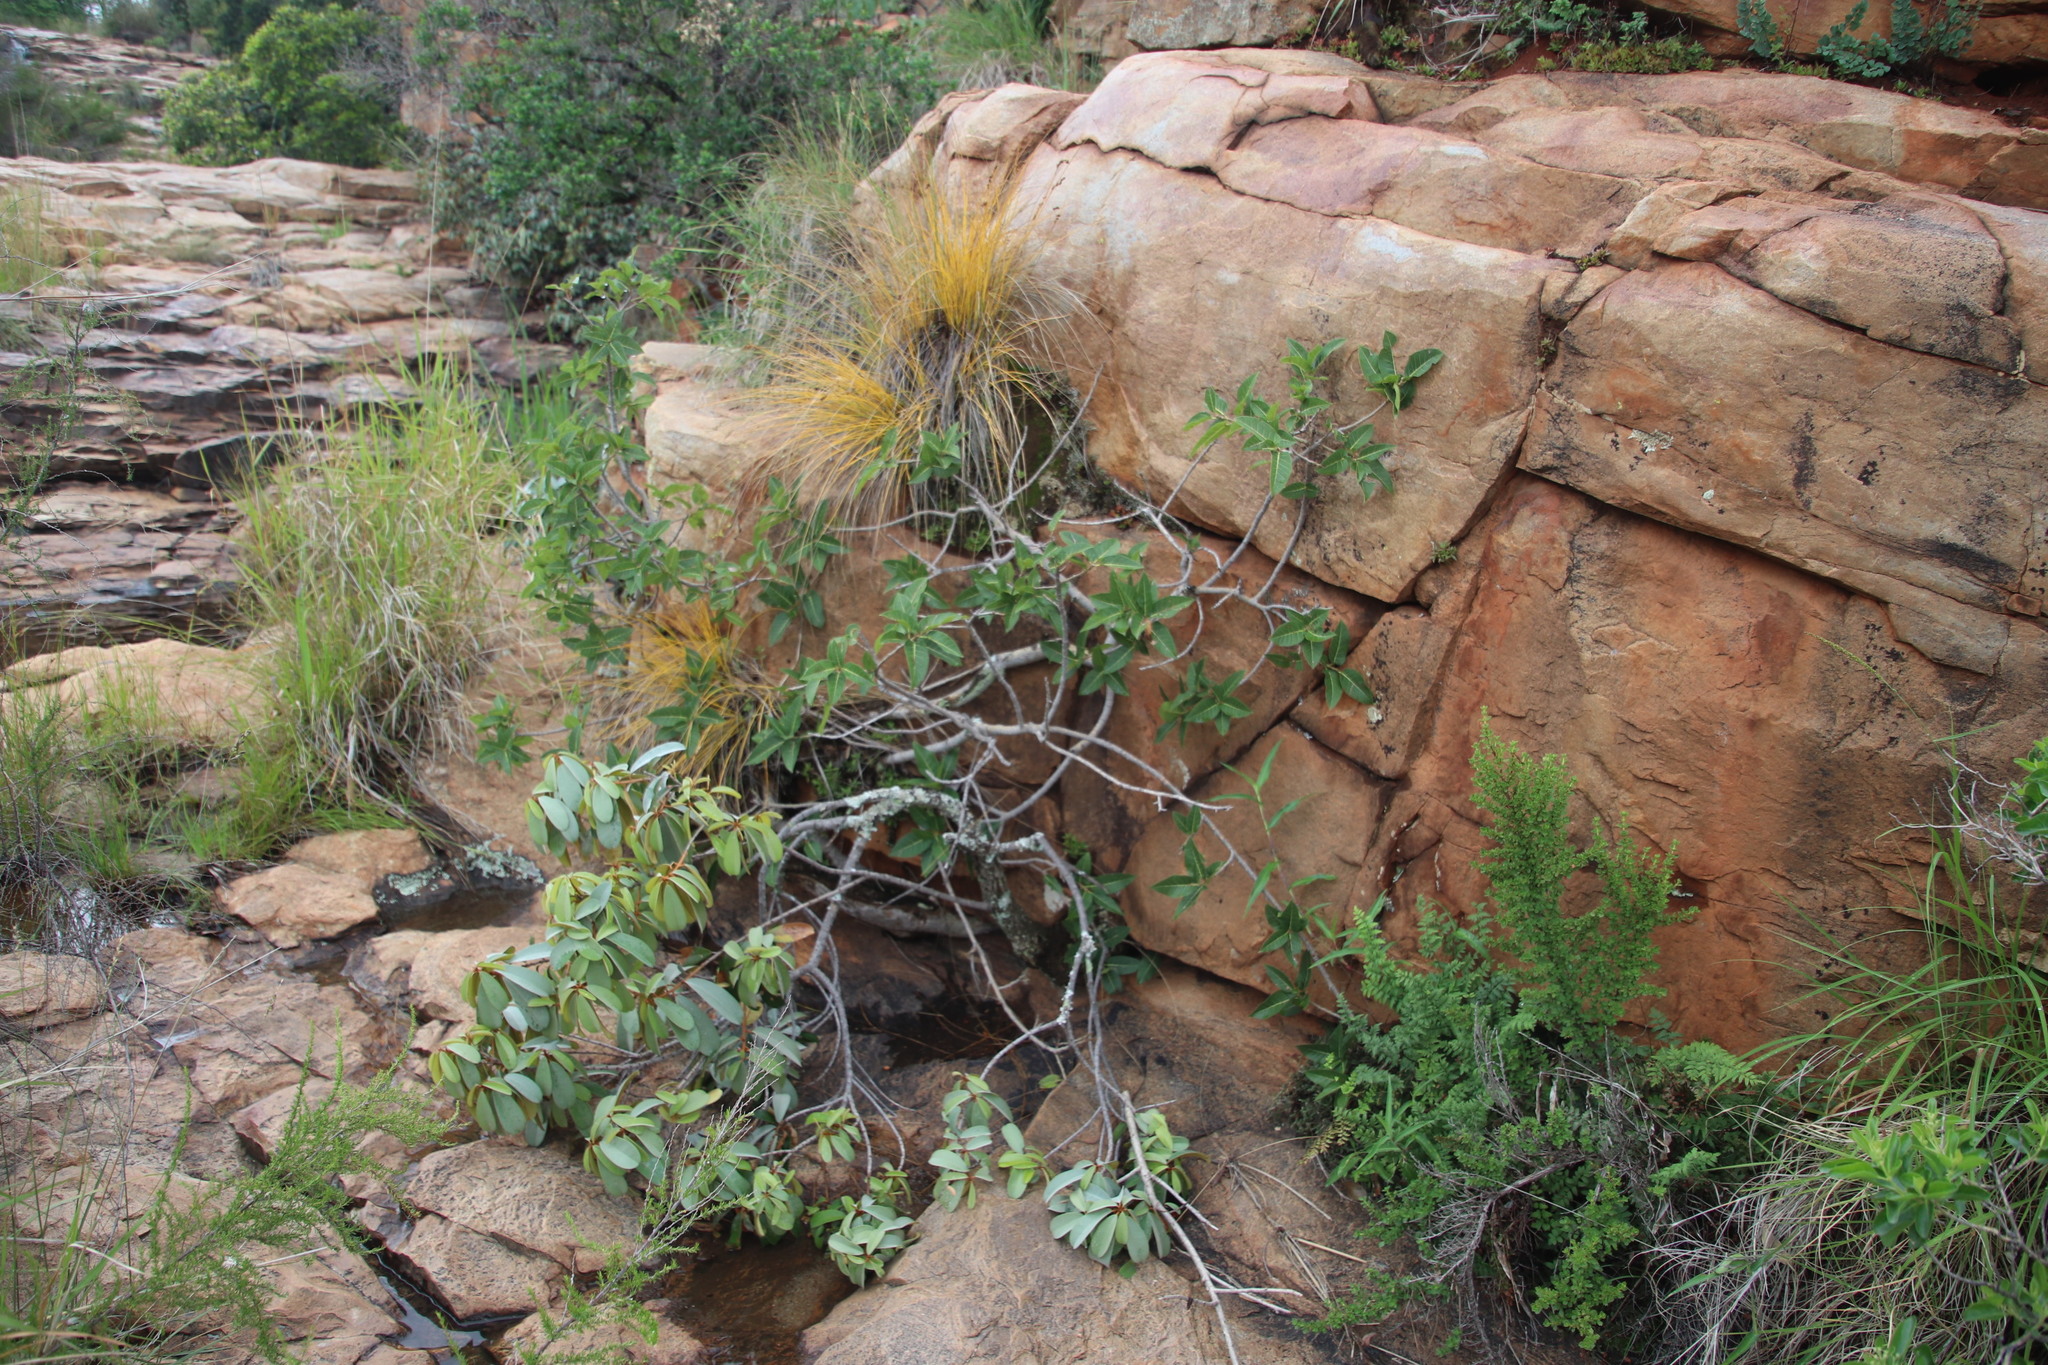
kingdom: Plantae
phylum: Tracheophyta
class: Magnoliopsida
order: Rosales
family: Moraceae
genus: Ficus
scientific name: Ficus ingens
